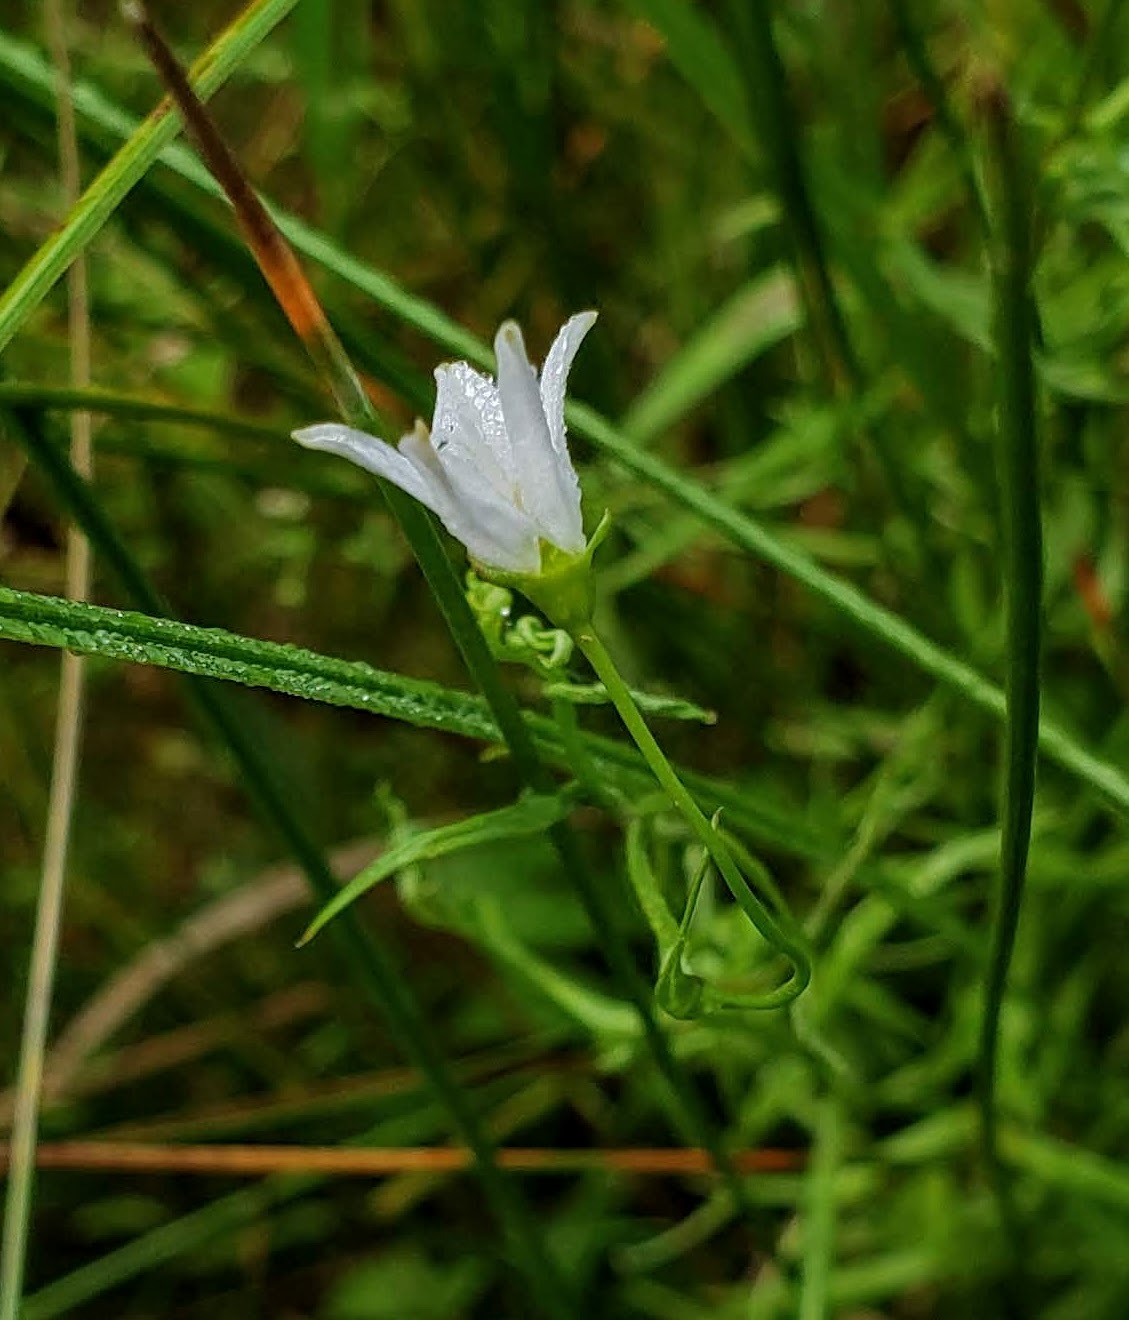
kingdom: Plantae
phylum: Tracheophyta
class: Magnoliopsida
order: Asterales
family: Campanulaceae
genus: Palustricodon
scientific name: Palustricodon aparinoides
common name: Bedstraw bellflower
